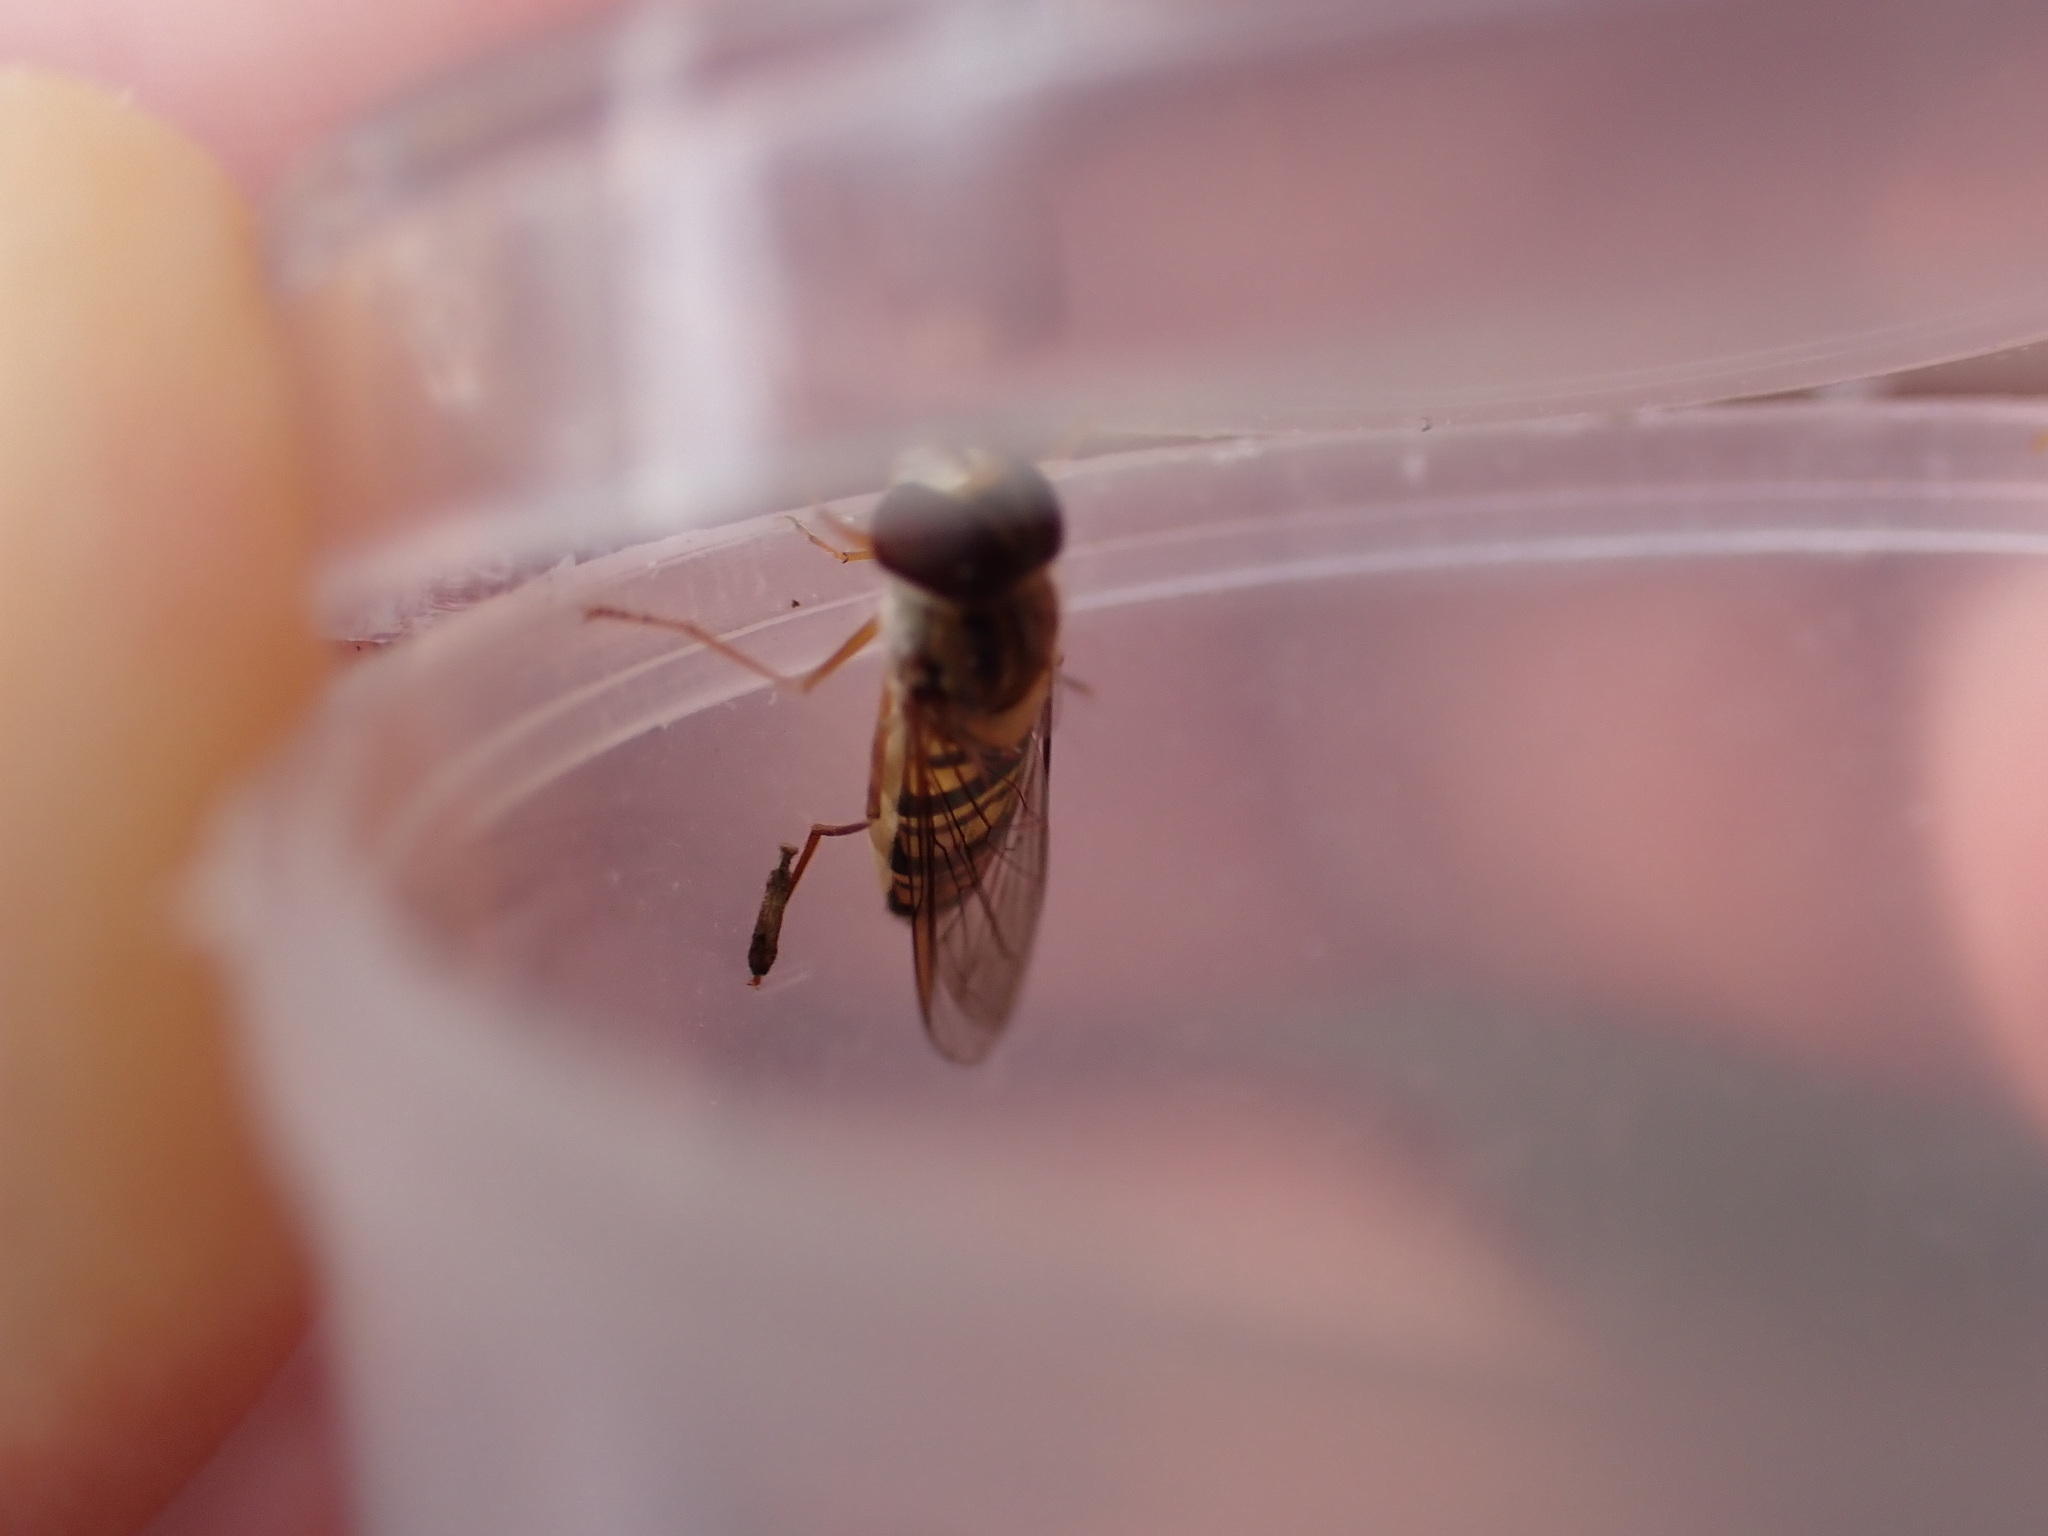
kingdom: Animalia
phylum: Arthropoda
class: Insecta
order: Diptera
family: Syrphidae
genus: Episyrphus
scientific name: Episyrphus balteatus
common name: Marmalade hoverfly
